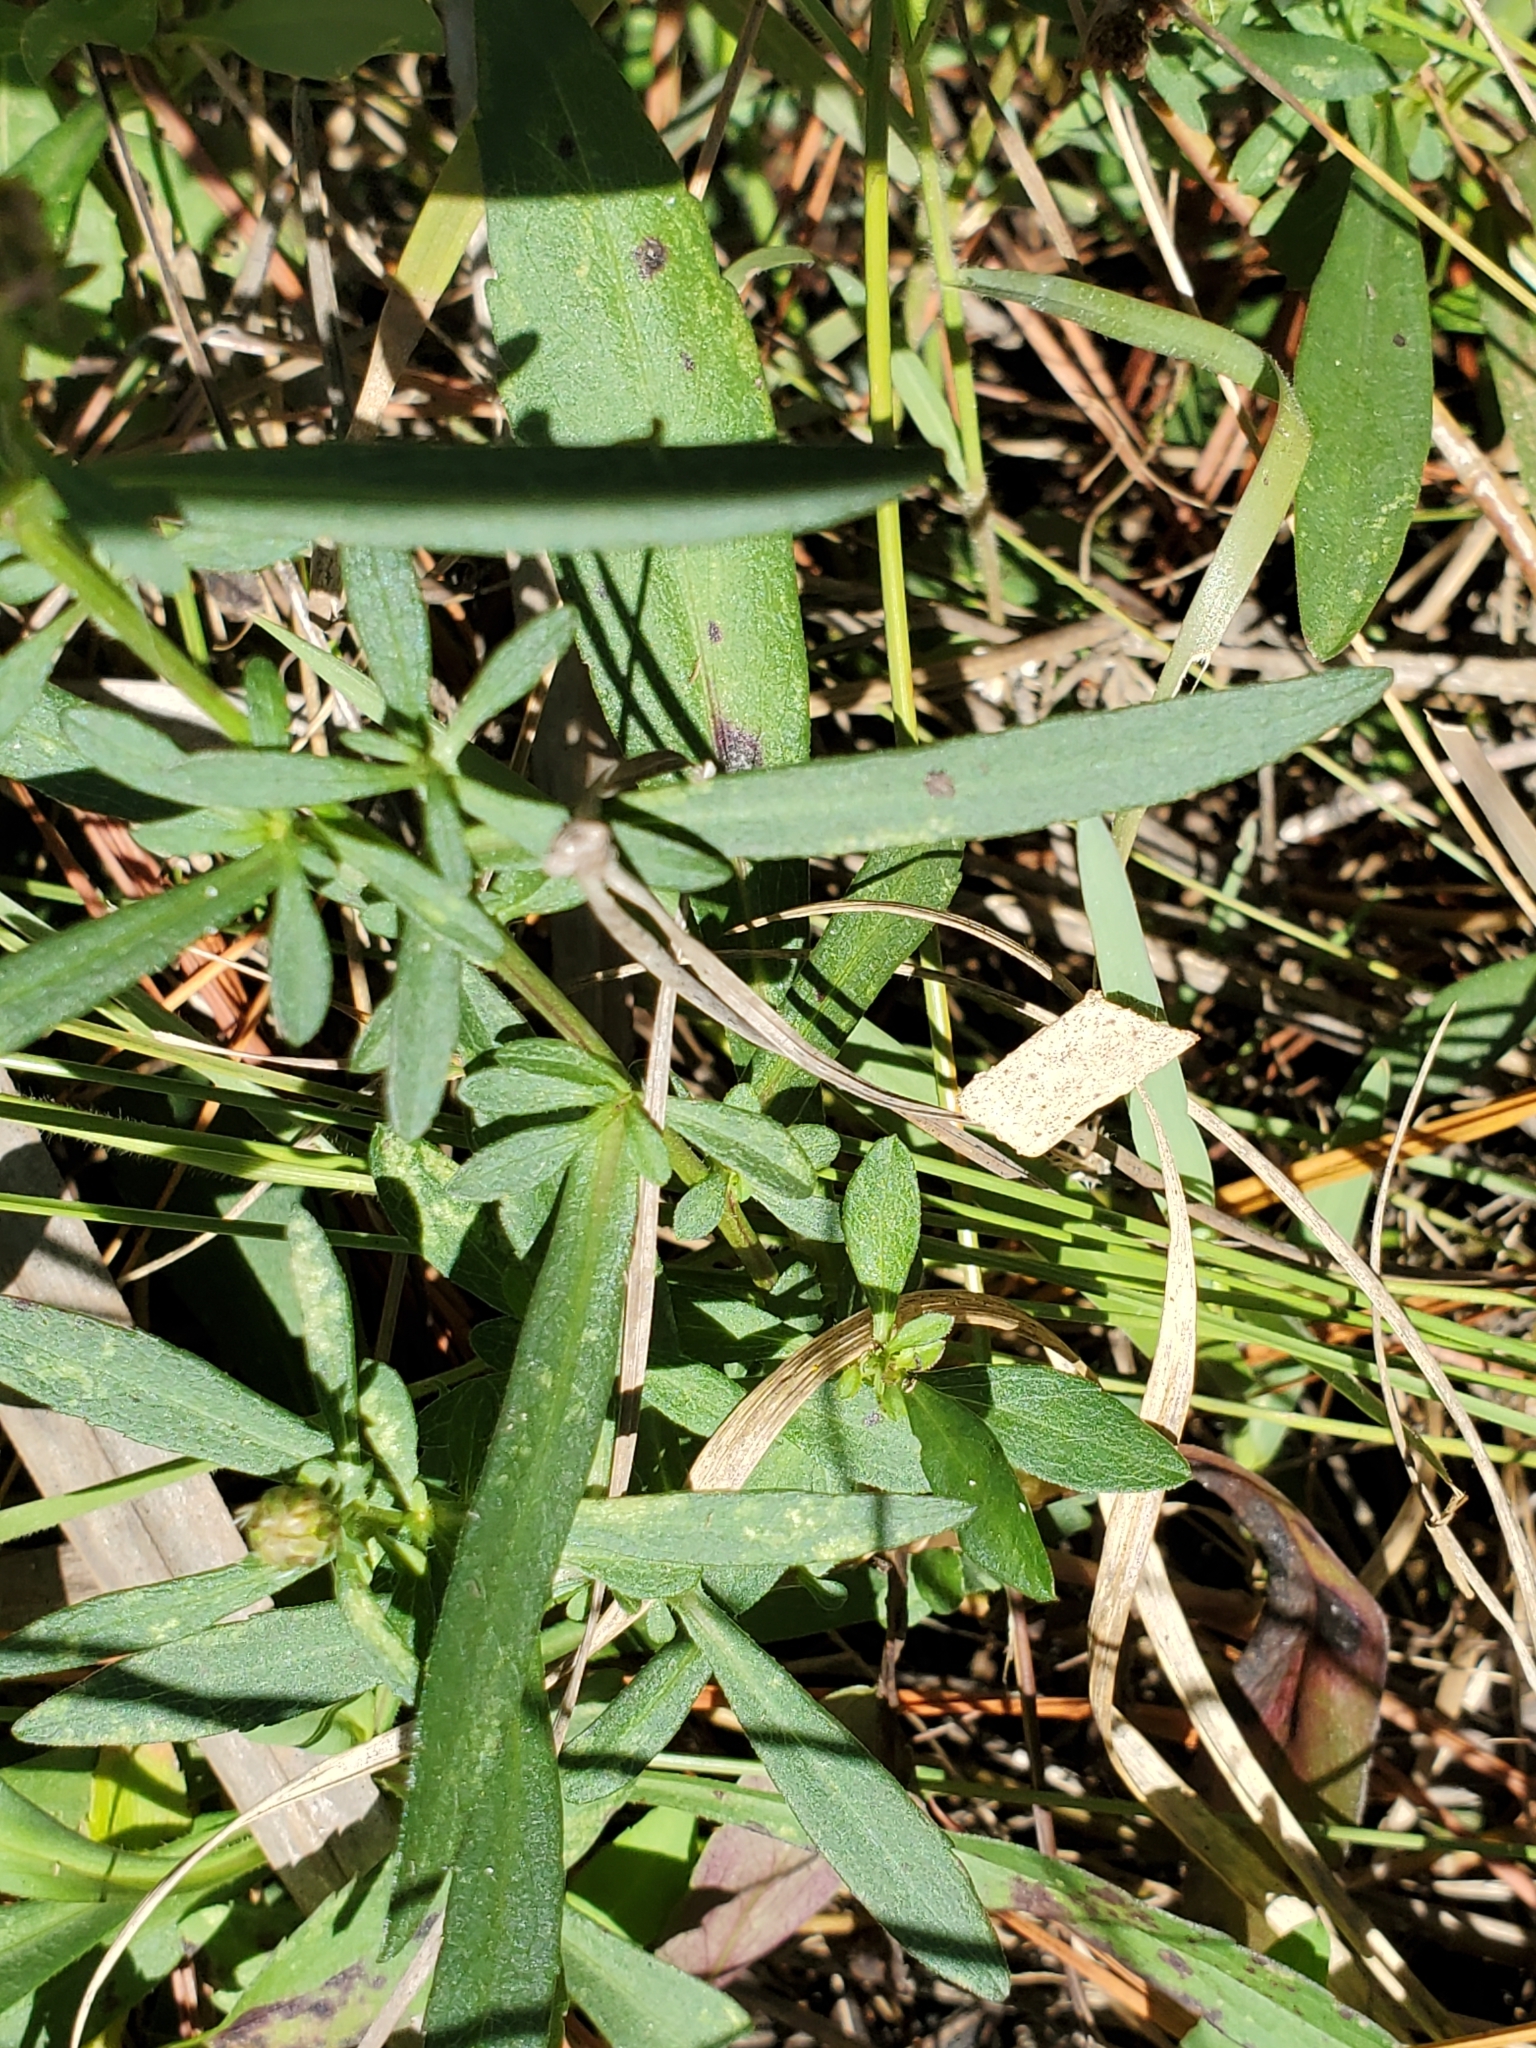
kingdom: Plantae
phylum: Tracheophyta
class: Magnoliopsida
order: Asterales
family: Asteraceae
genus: Symphyotrichum
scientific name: Symphyotrichum simmondsii
